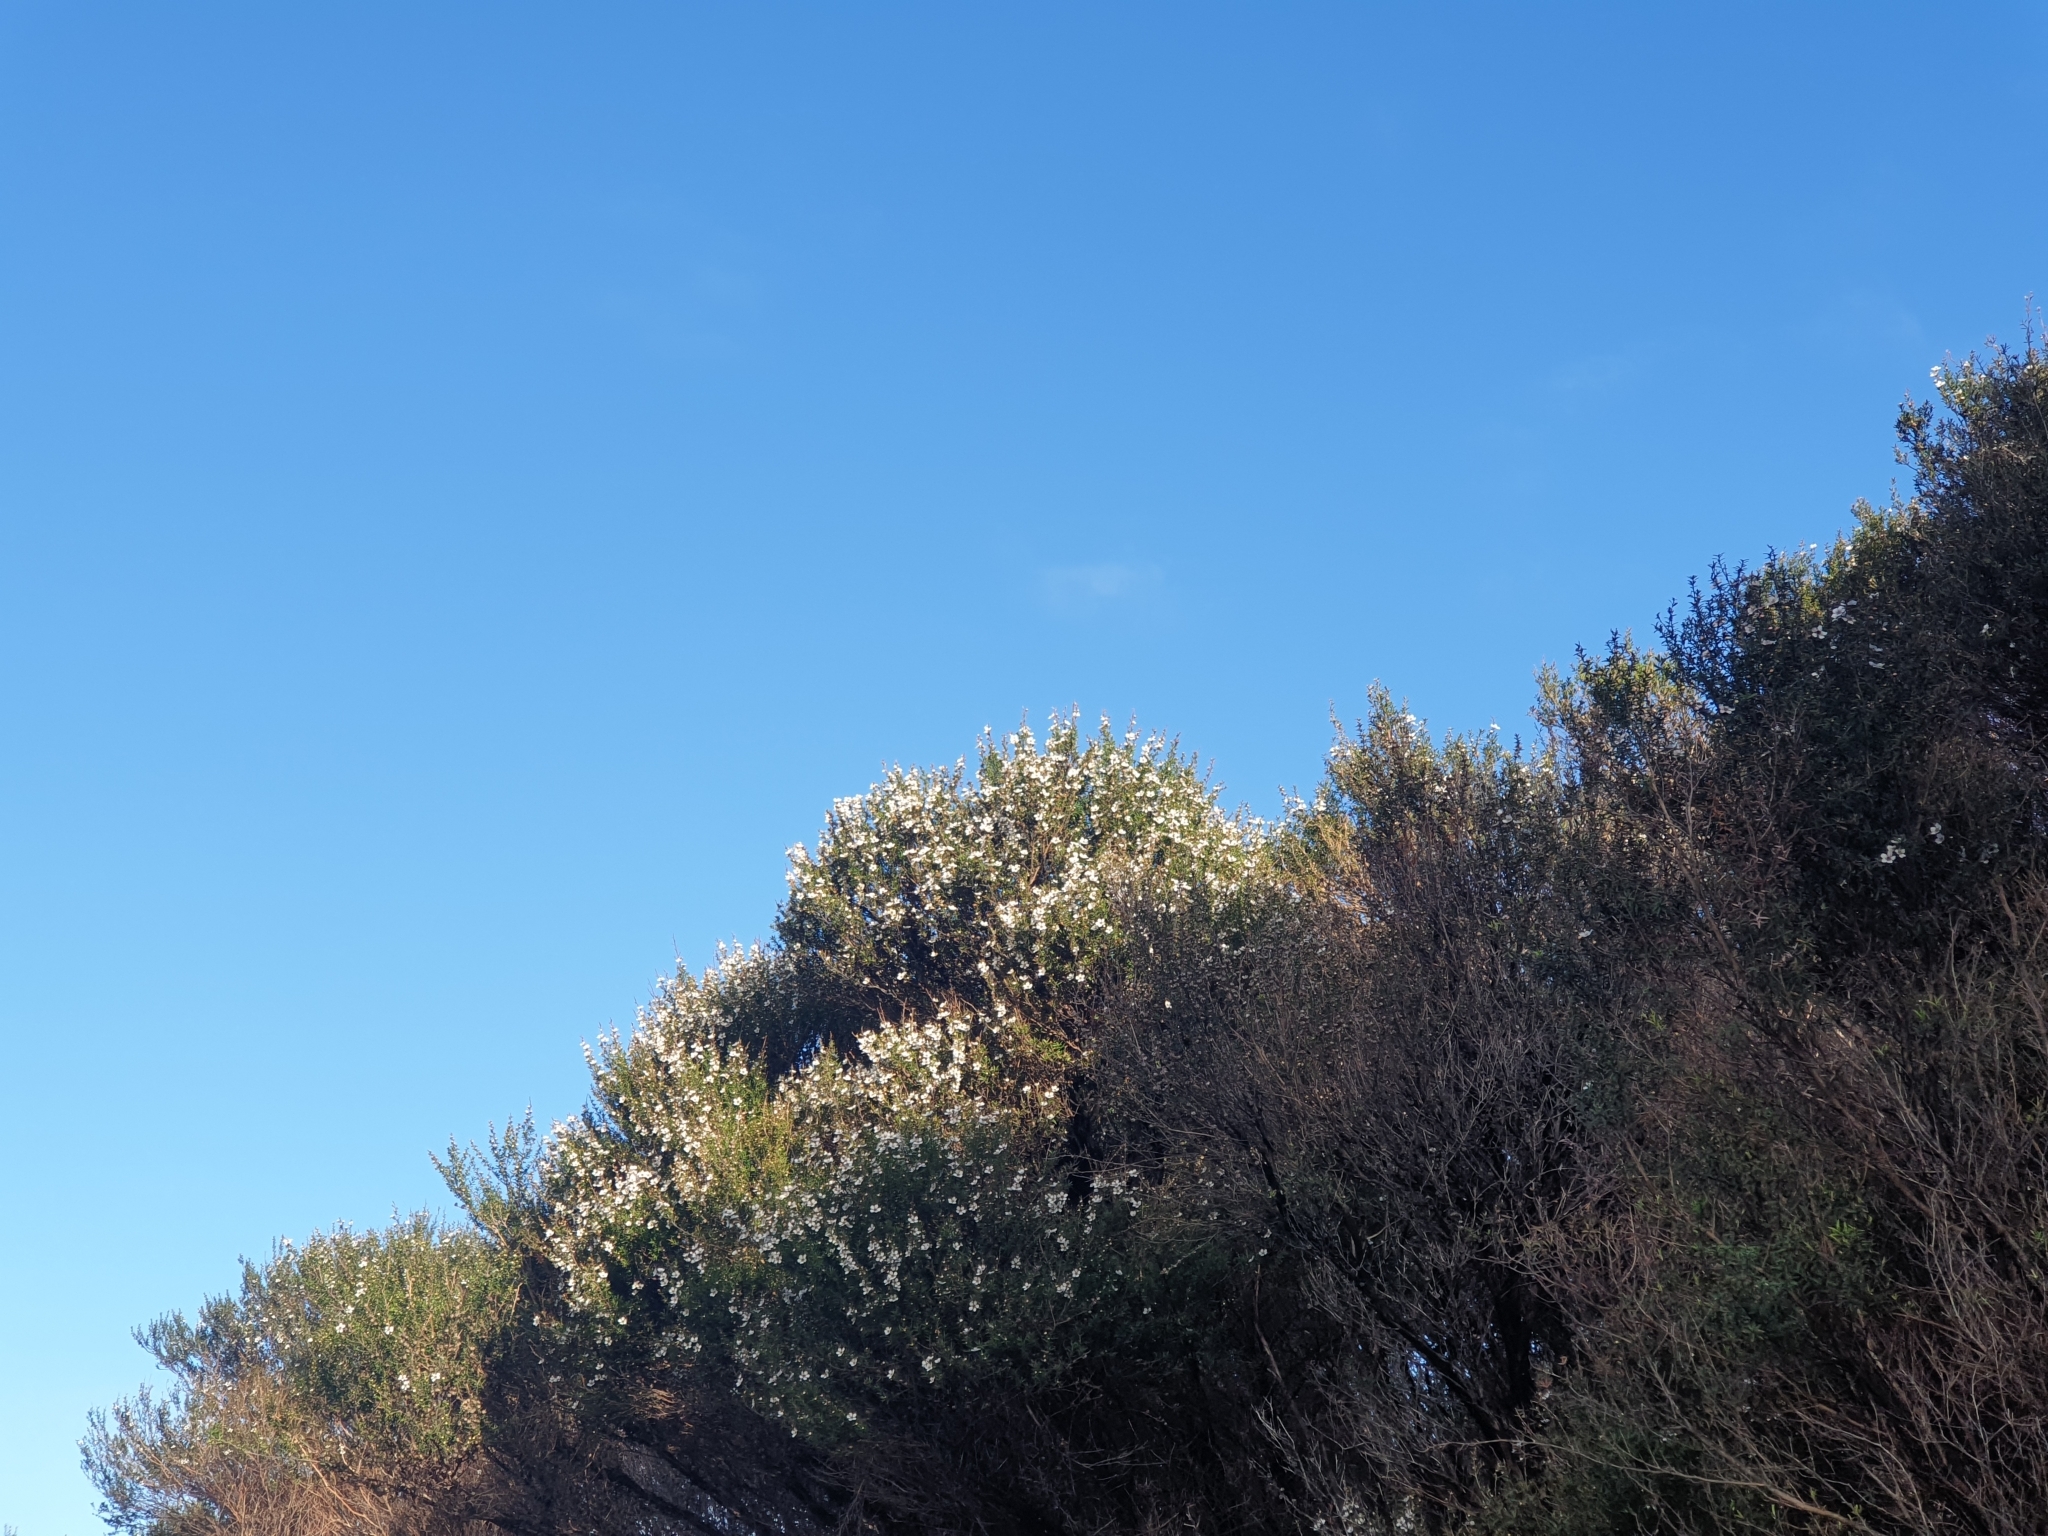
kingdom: Plantae
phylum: Tracheophyta
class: Magnoliopsida
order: Myrtales
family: Myrtaceae
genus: Leptospermum
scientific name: Leptospermum scoparium
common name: Broom tea-tree
